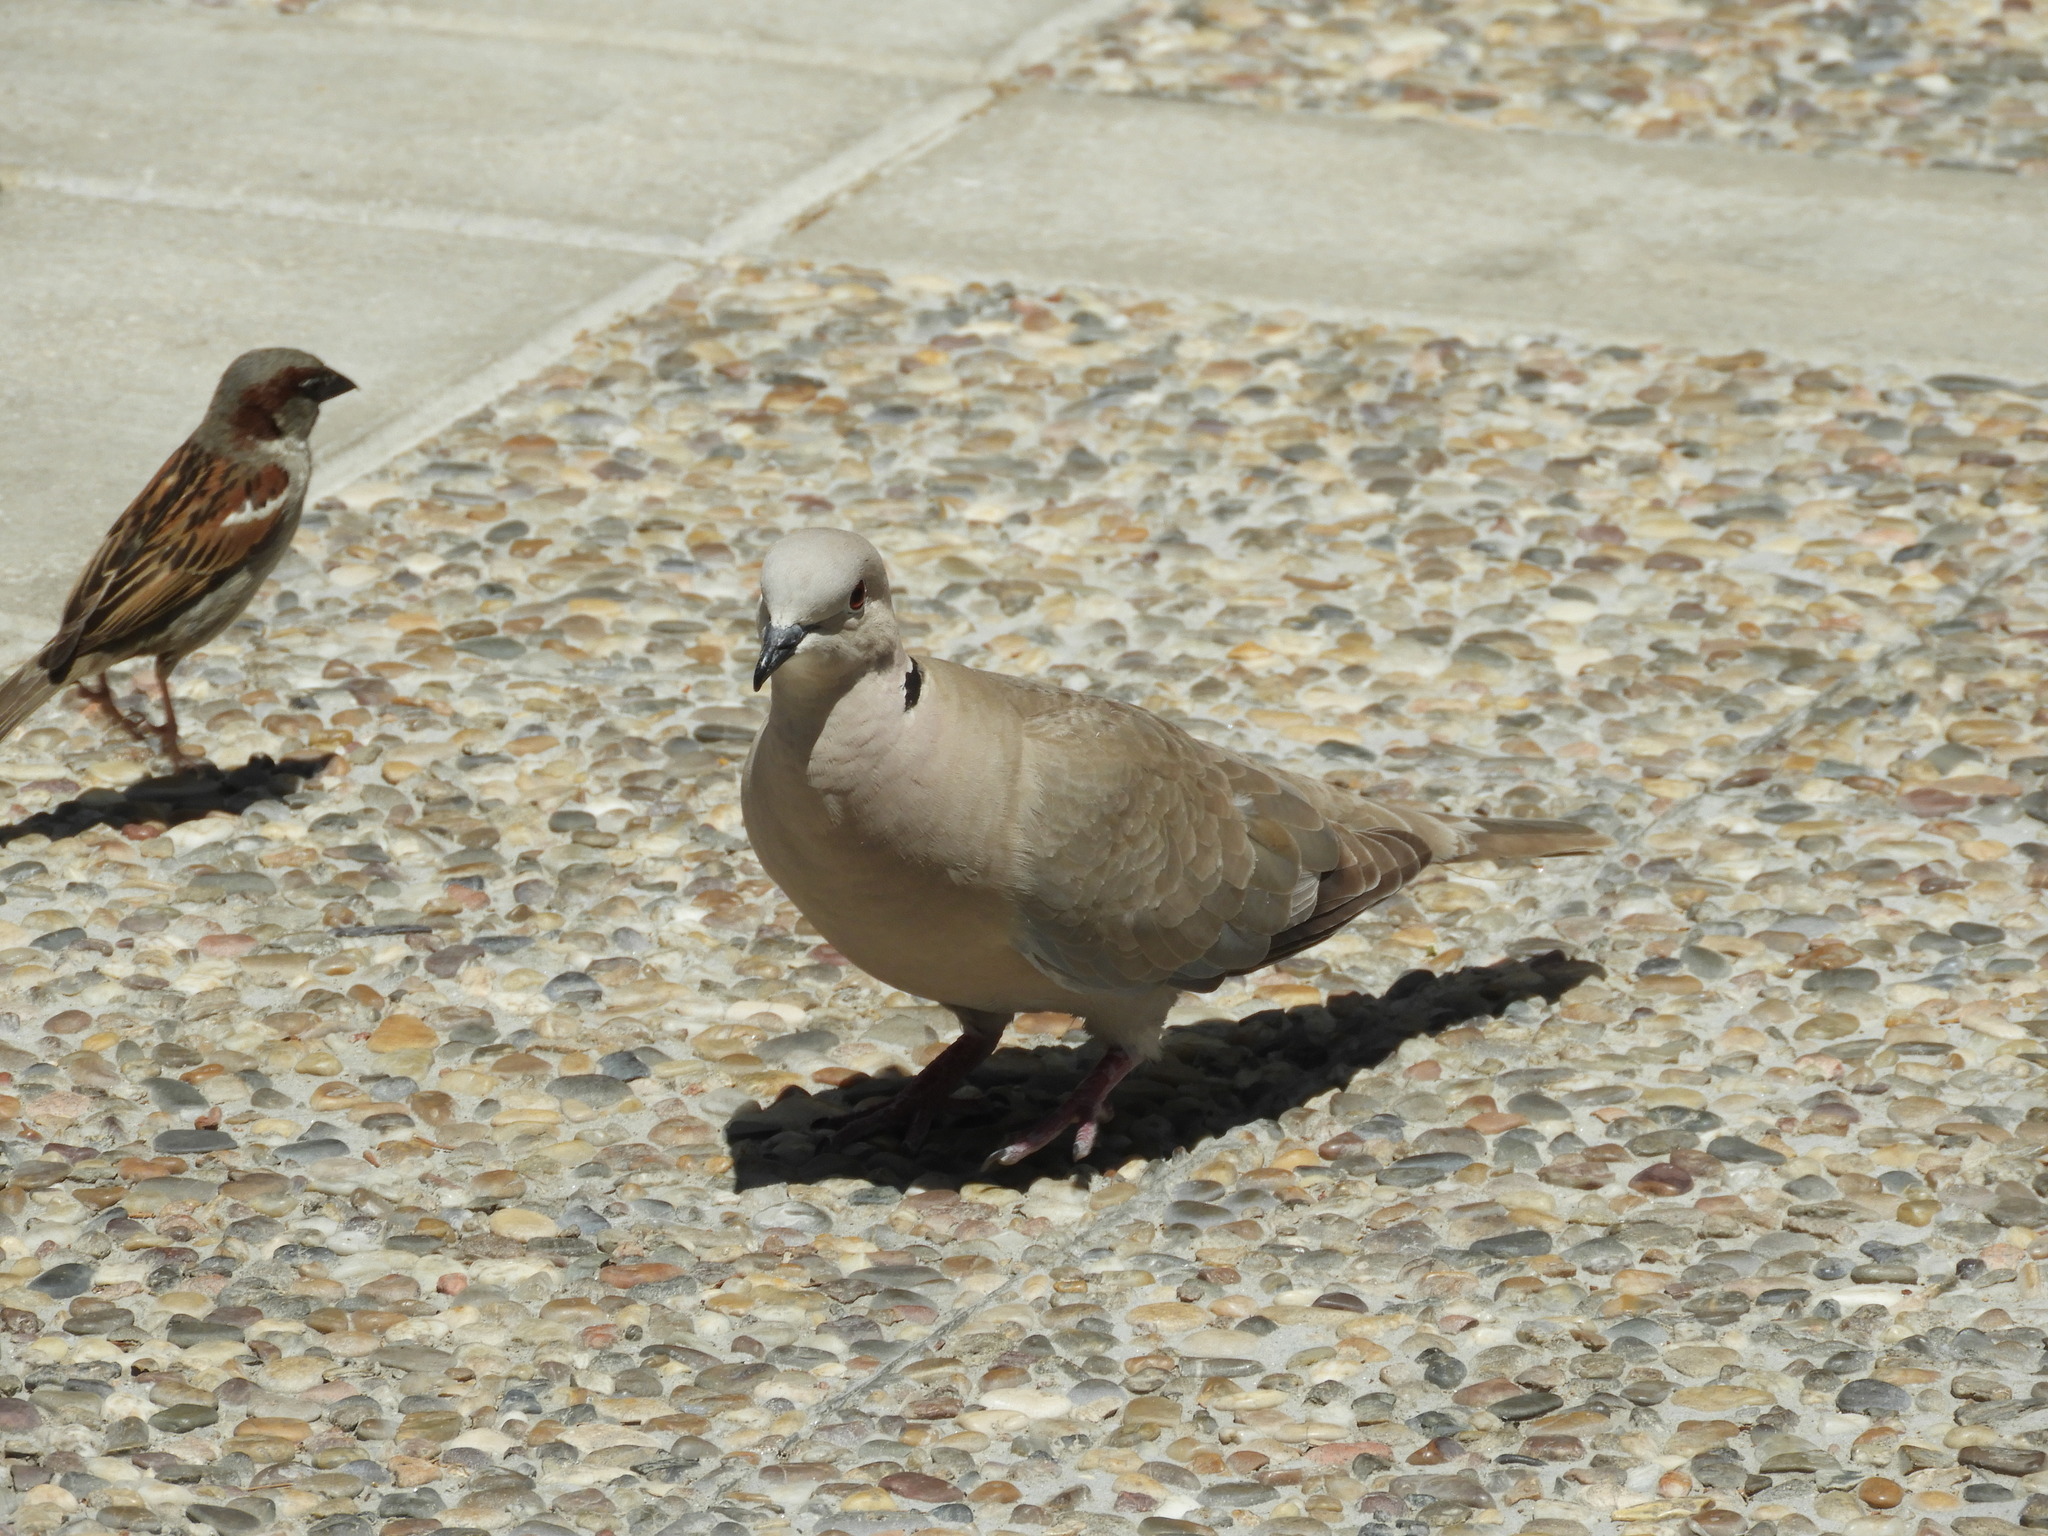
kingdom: Animalia
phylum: Chordata
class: Aves
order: Passeriformes
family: Passeridae
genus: Passer
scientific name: Passer domesticus
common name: House sparrow
